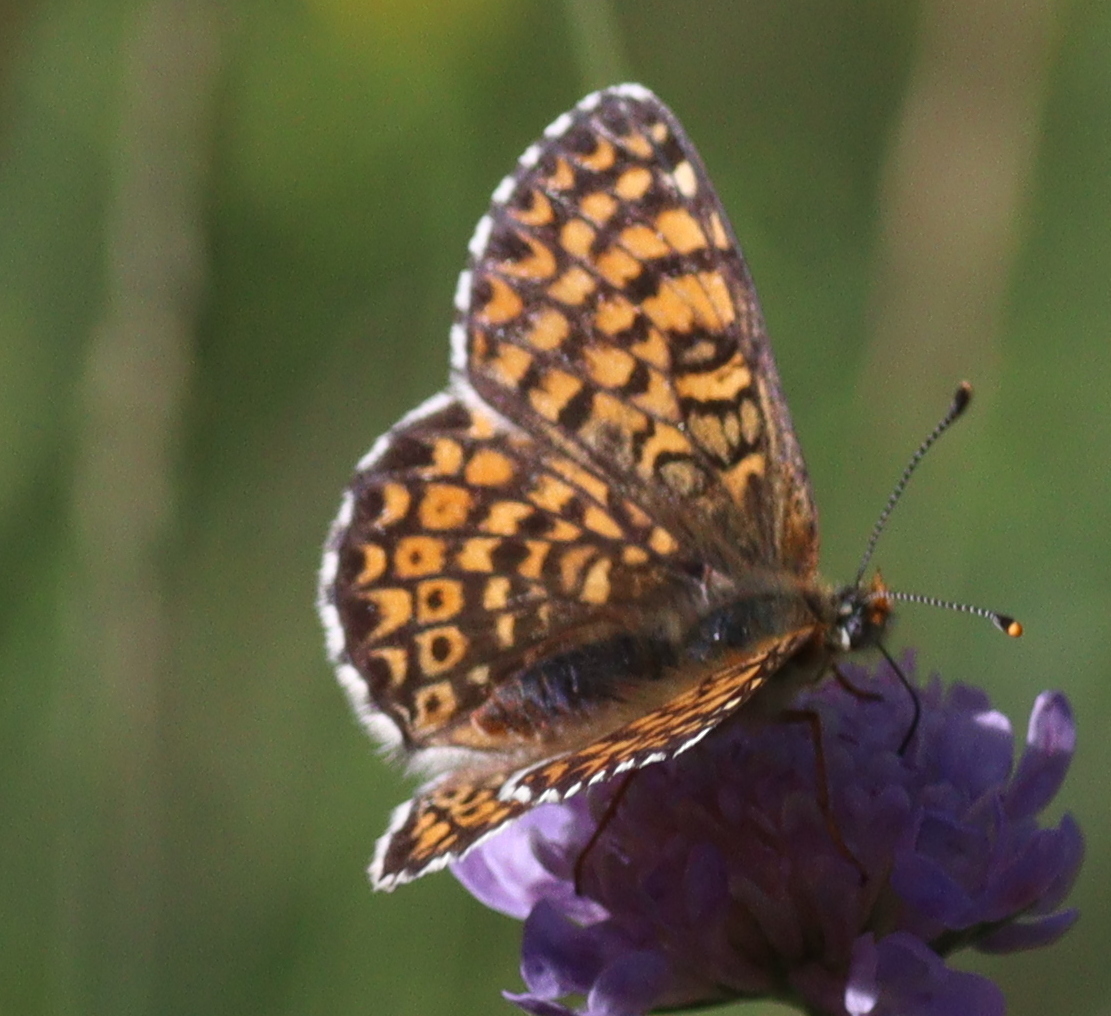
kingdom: Animalia
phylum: Arthropoda
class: Insecta
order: Lepidoptera
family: Nymphalidae
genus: Melitaea
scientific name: Melitaea cinxia
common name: Glanville fritillary
